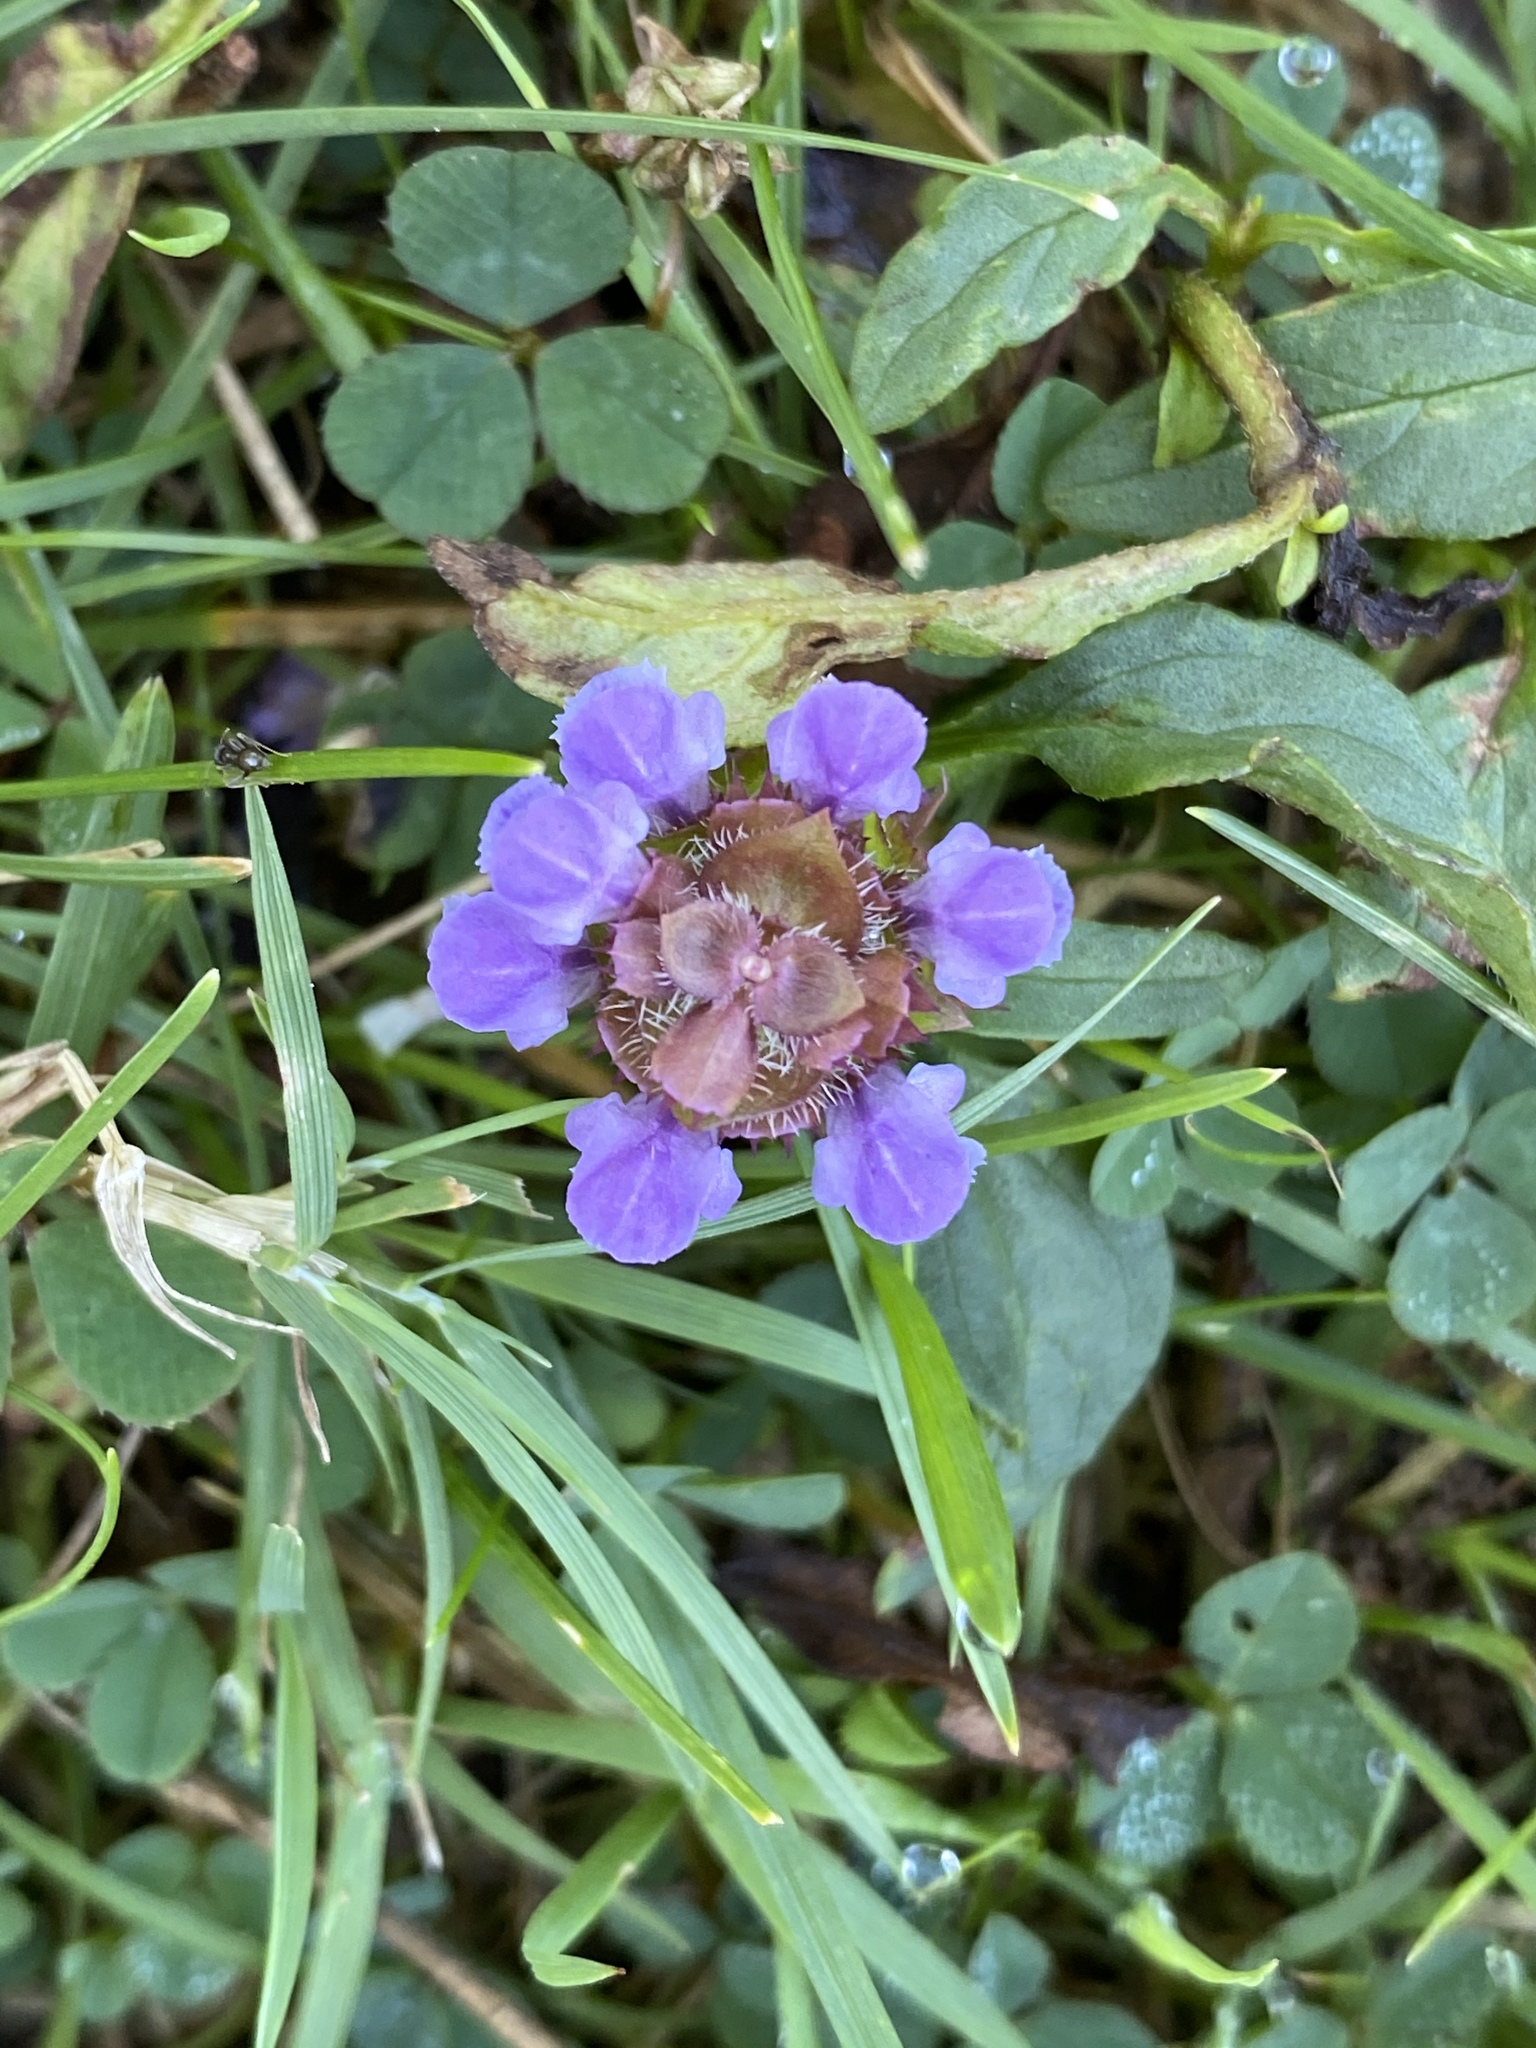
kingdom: Plantae
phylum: Tracheophyta
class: Magnoliopsida
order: Lamiales
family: Lamiaceae
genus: Prunella
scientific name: Prunella vulgaris
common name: Heal-all
